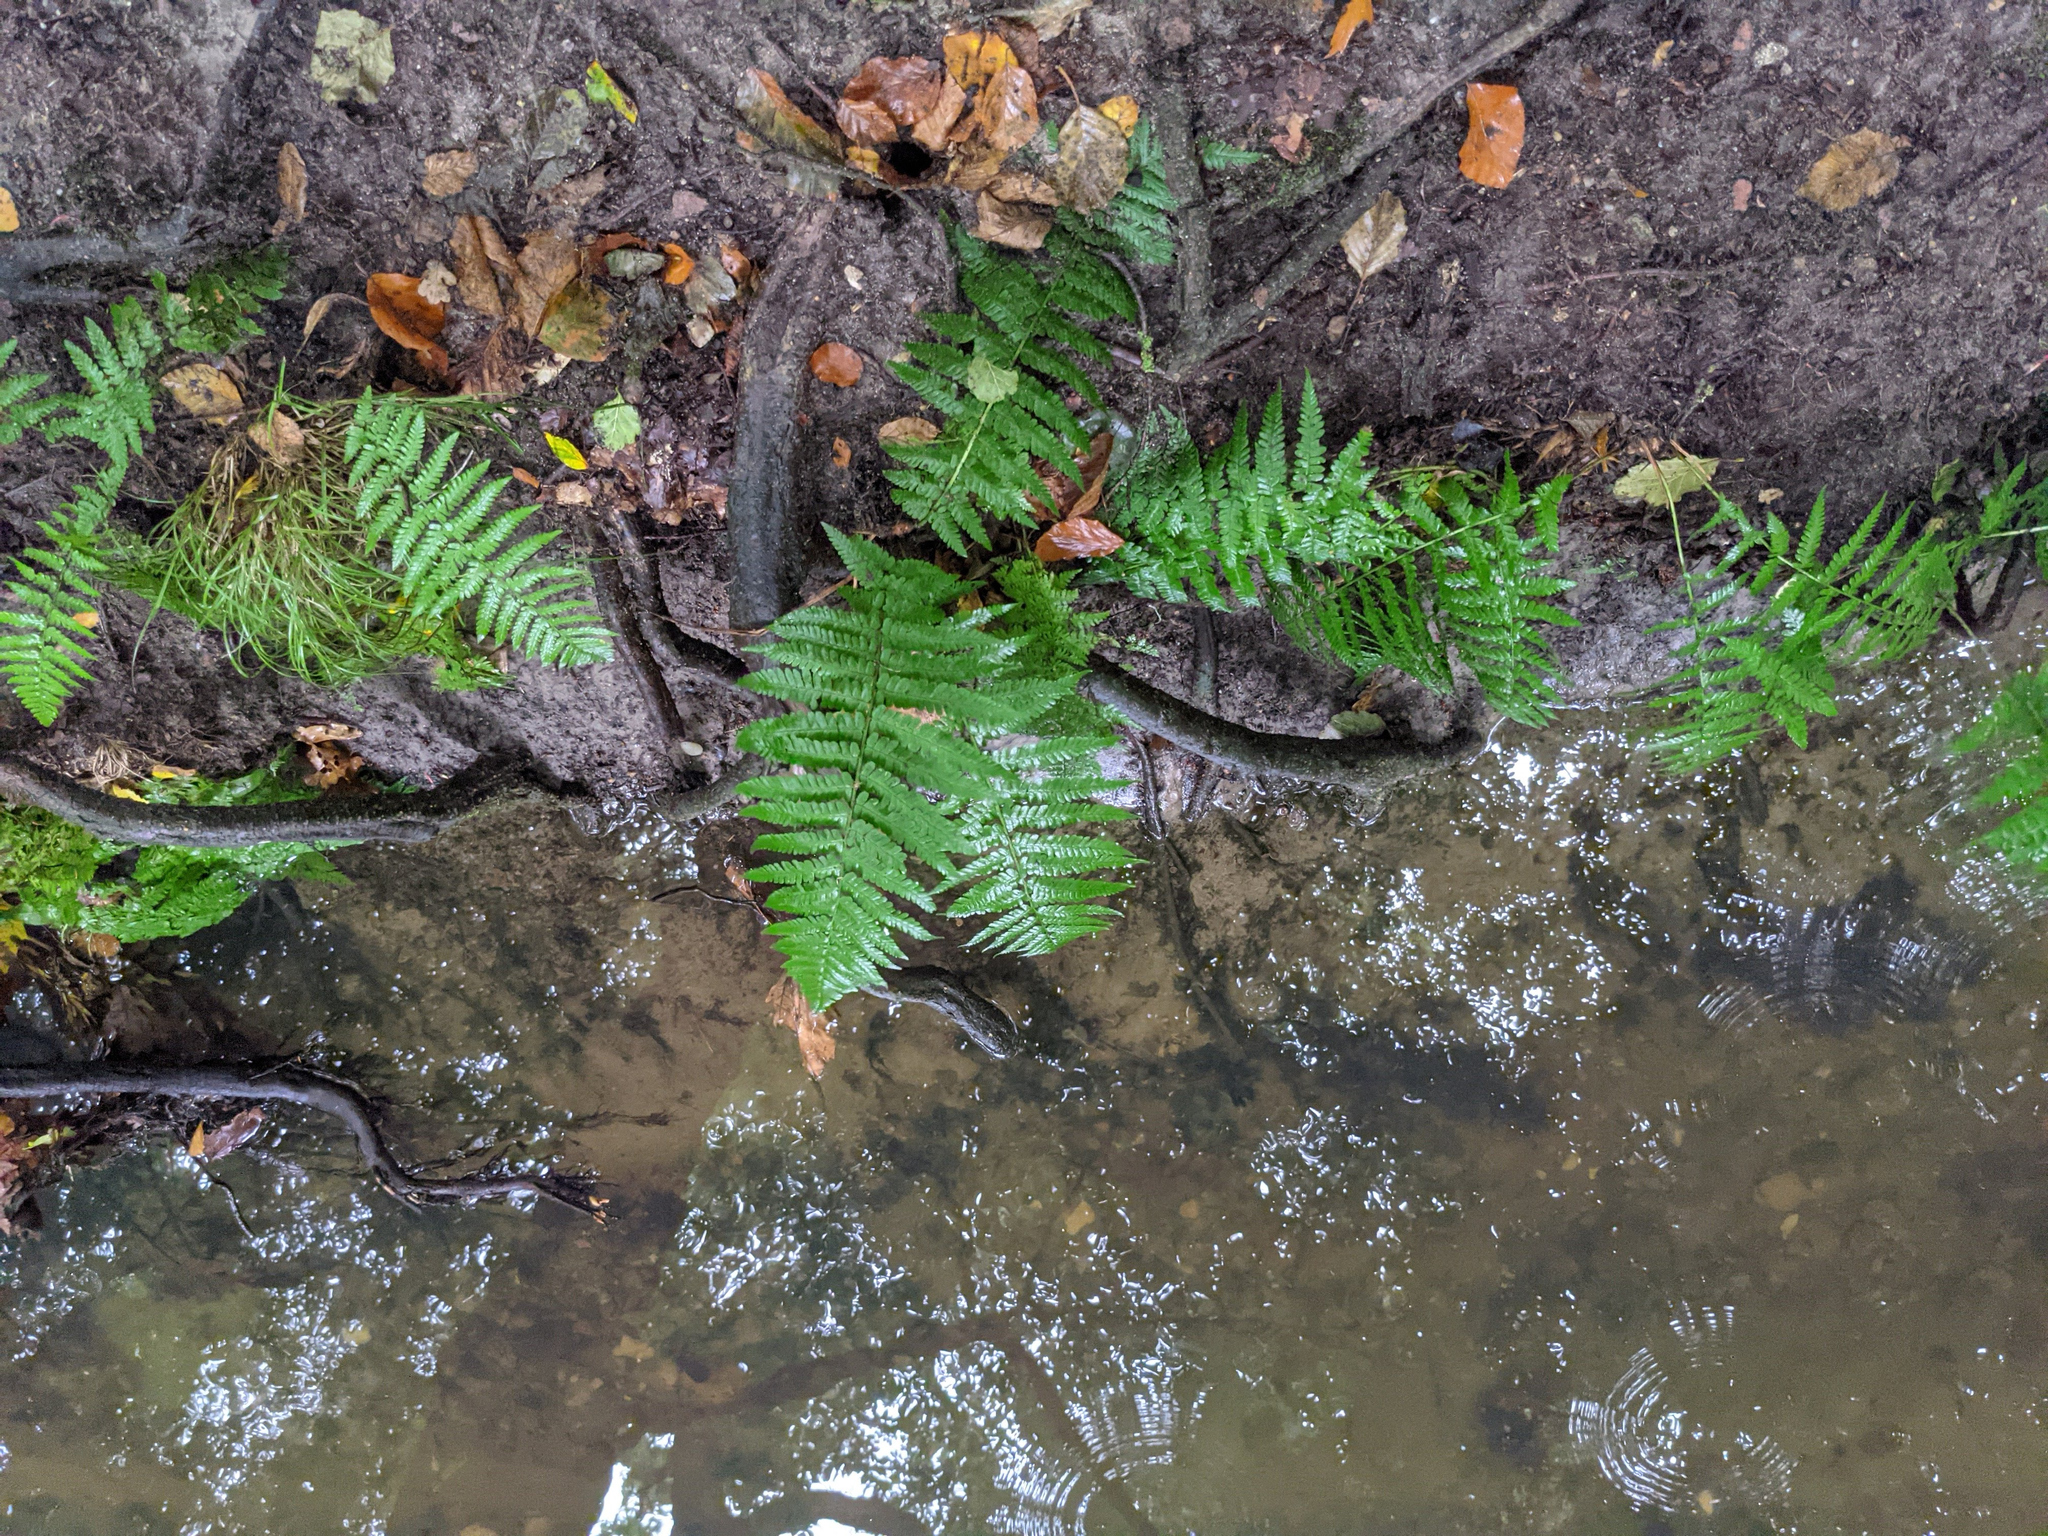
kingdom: Plantae
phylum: Tracheophyta
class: Polypodiopsida
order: Polypodiales
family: Dryopteridaceae
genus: Dryopteris
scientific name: Dryopteris filix-mas
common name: Male fern
